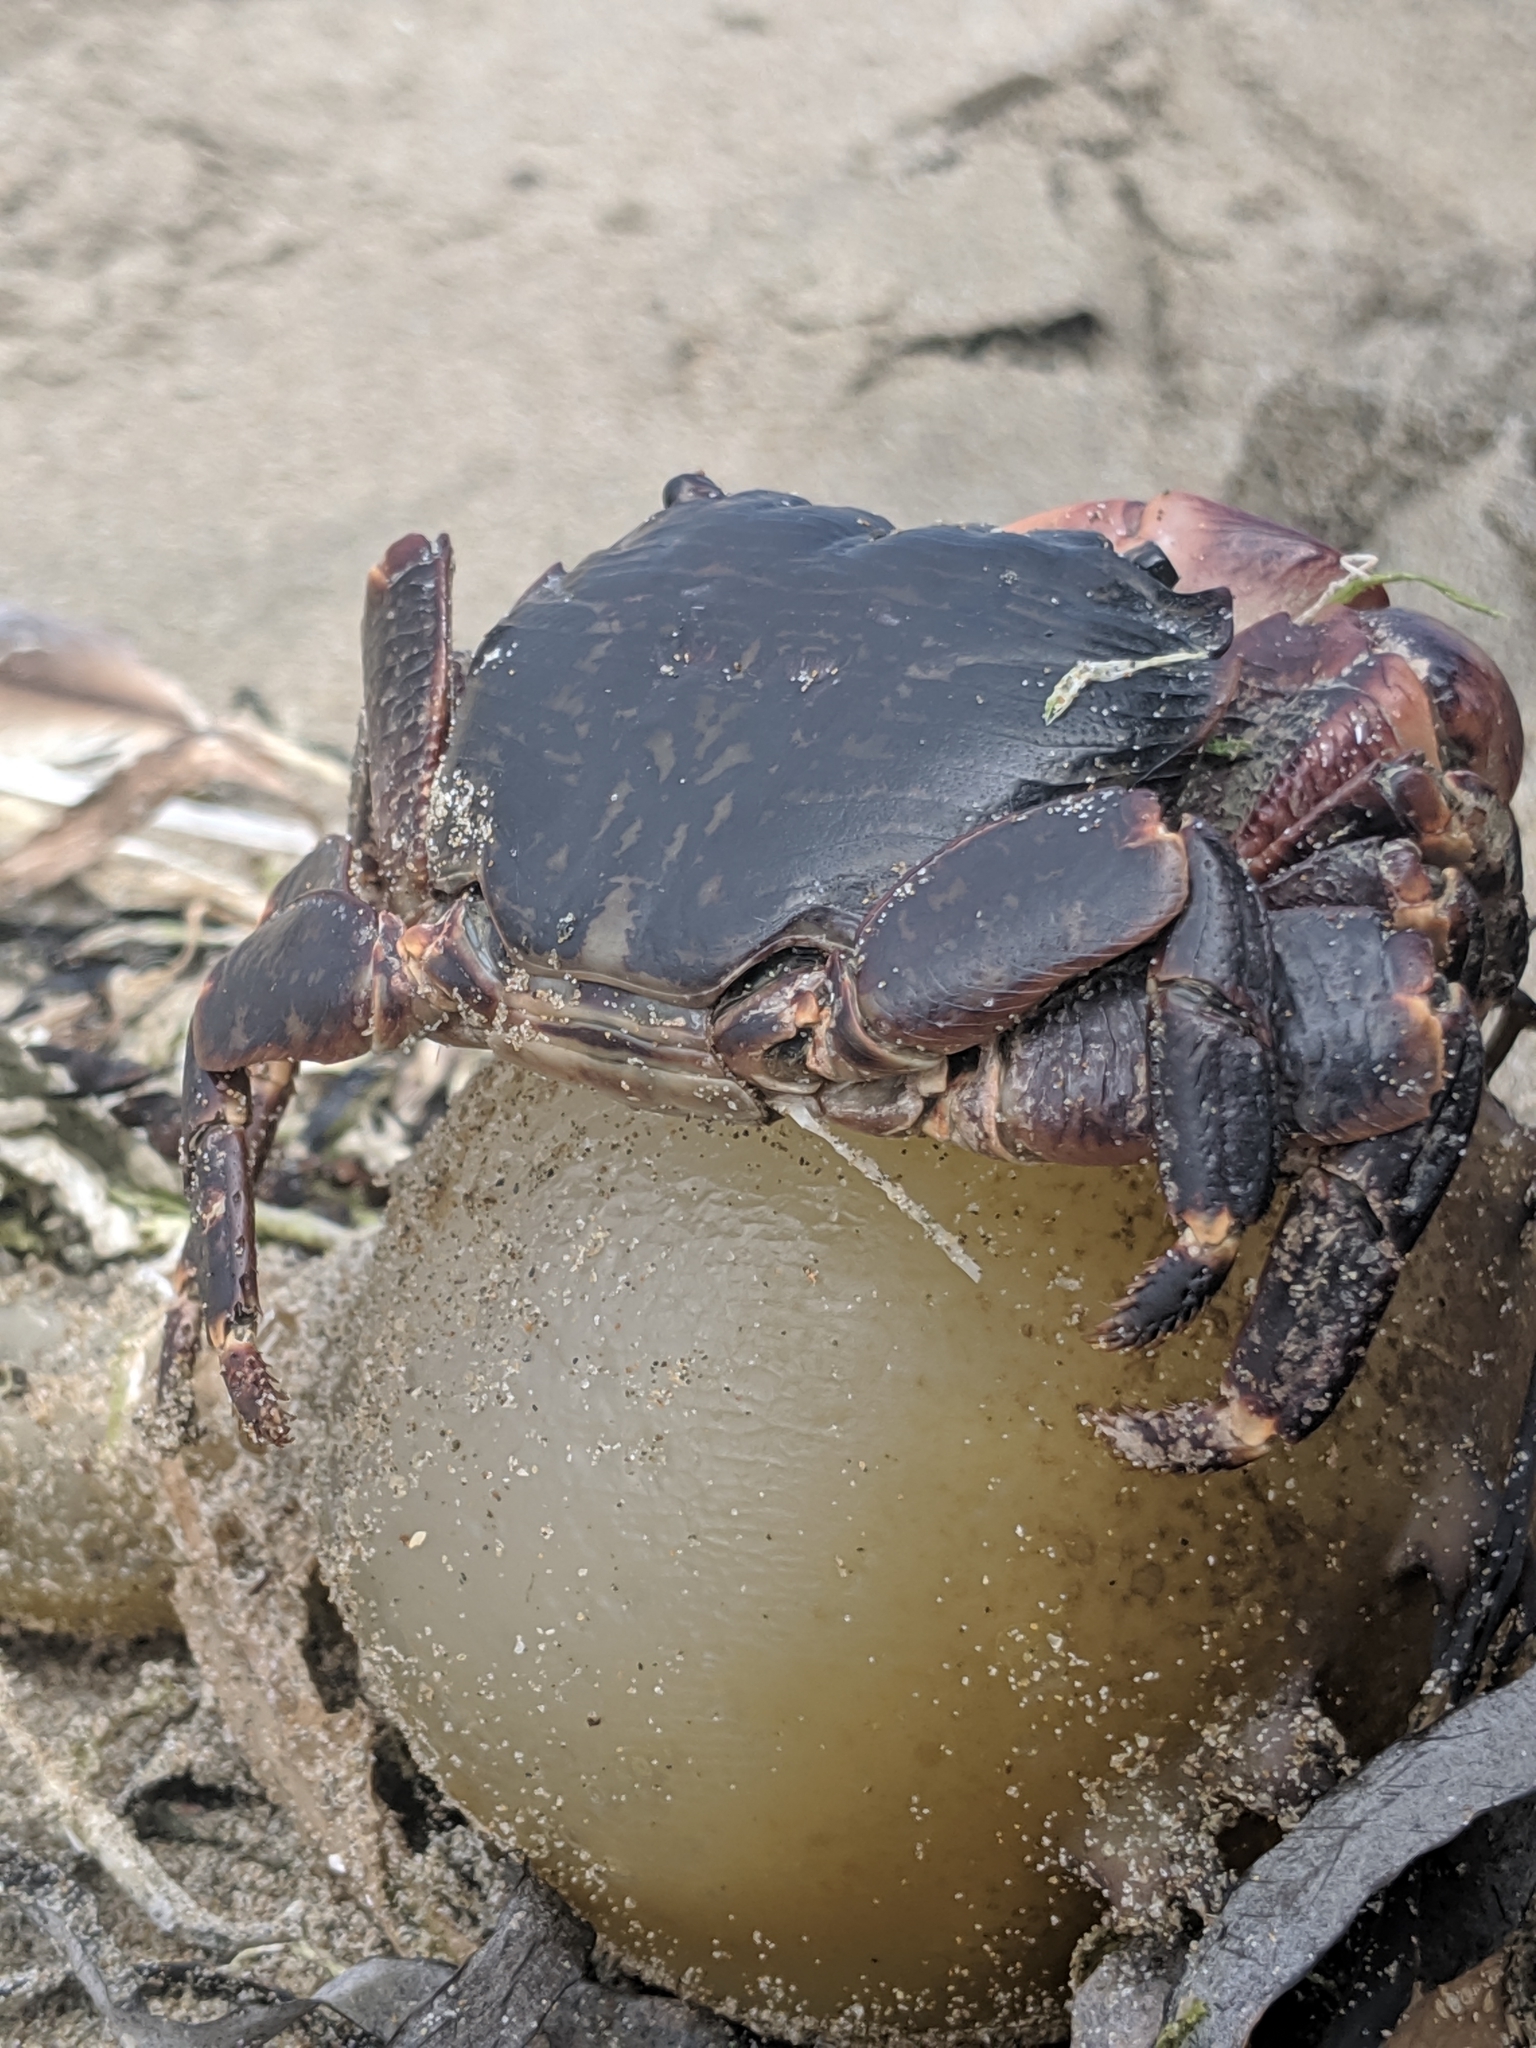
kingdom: Animalia
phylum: Arthropoda
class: Malacostraca
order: Decapoda
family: Grapsidae
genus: Pachygrapsus
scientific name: Pachygrapsus crassipes
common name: Striped shore crab
